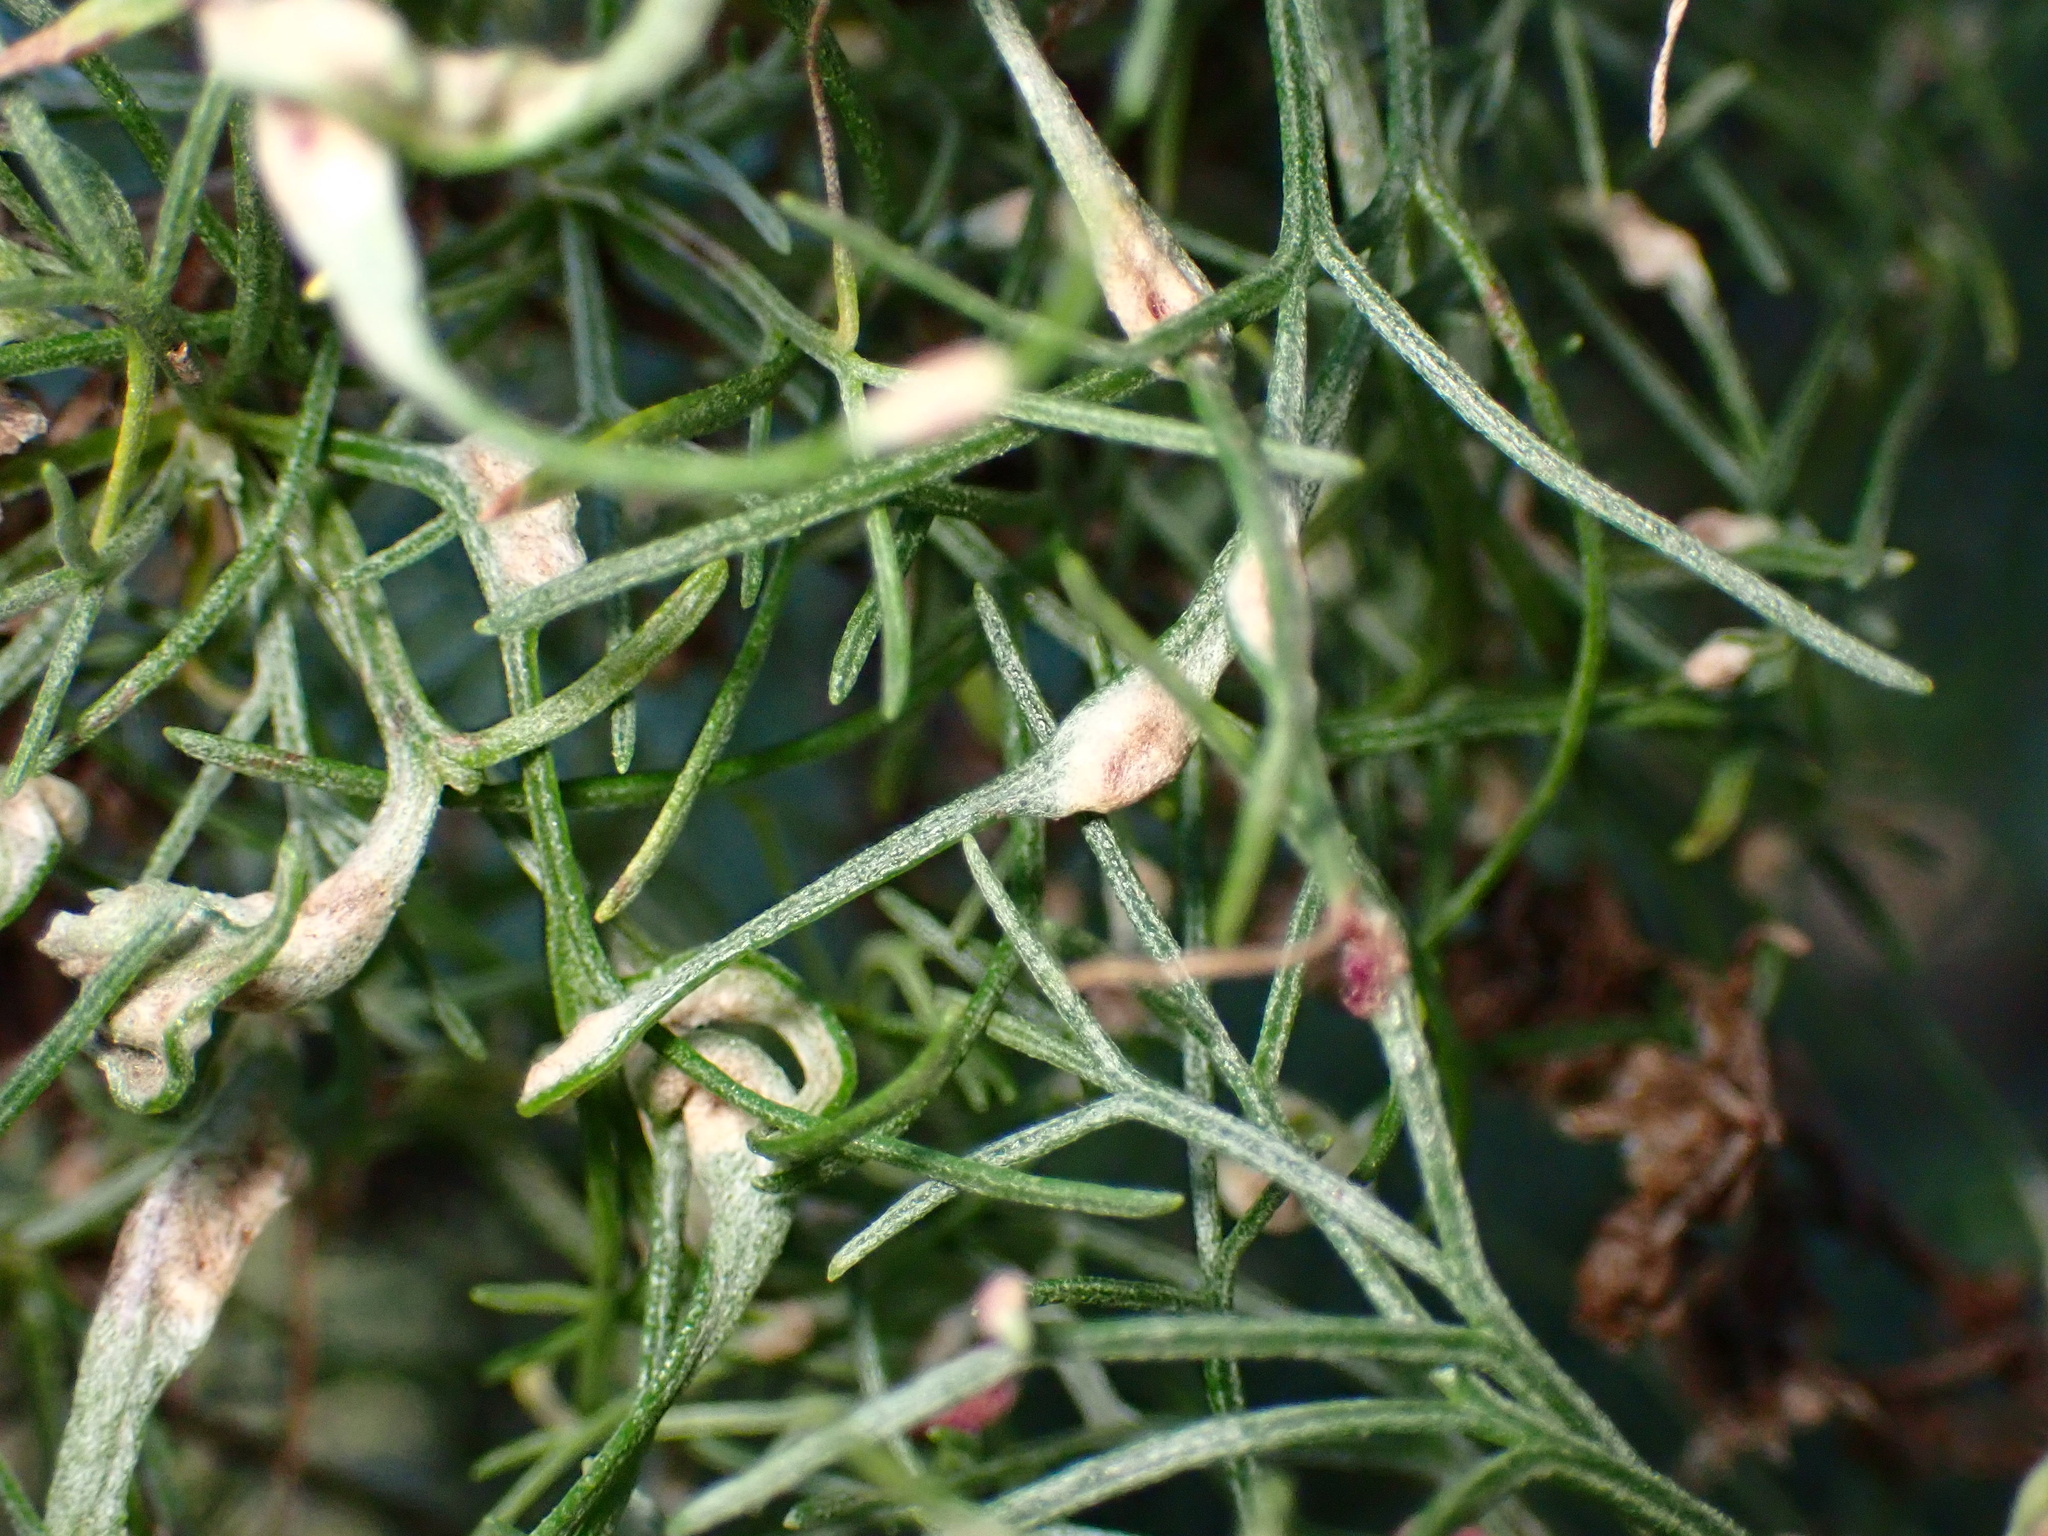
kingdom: Animalia
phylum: Arthropoda
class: Arachnida
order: Trombidiformes
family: Eriophyidae
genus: Aceria
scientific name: Aceria
